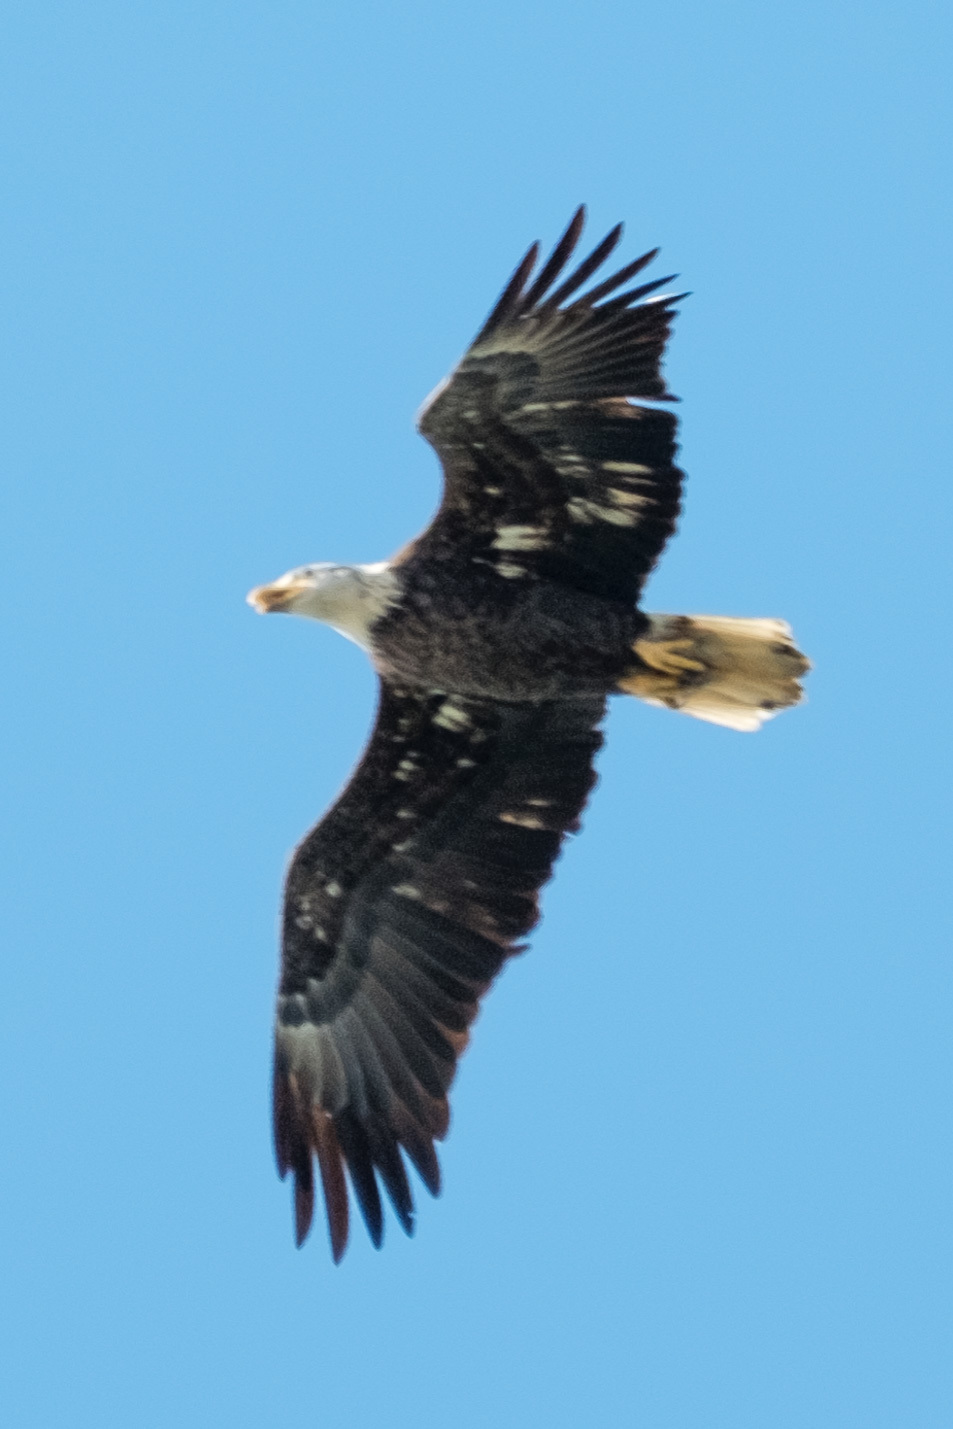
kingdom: Animalia
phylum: Chordata
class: Aves
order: Accipitriformes
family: Accipitridae
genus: Haliaeetus
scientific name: Haliaeetus leucocephalus
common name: Bald eagle
